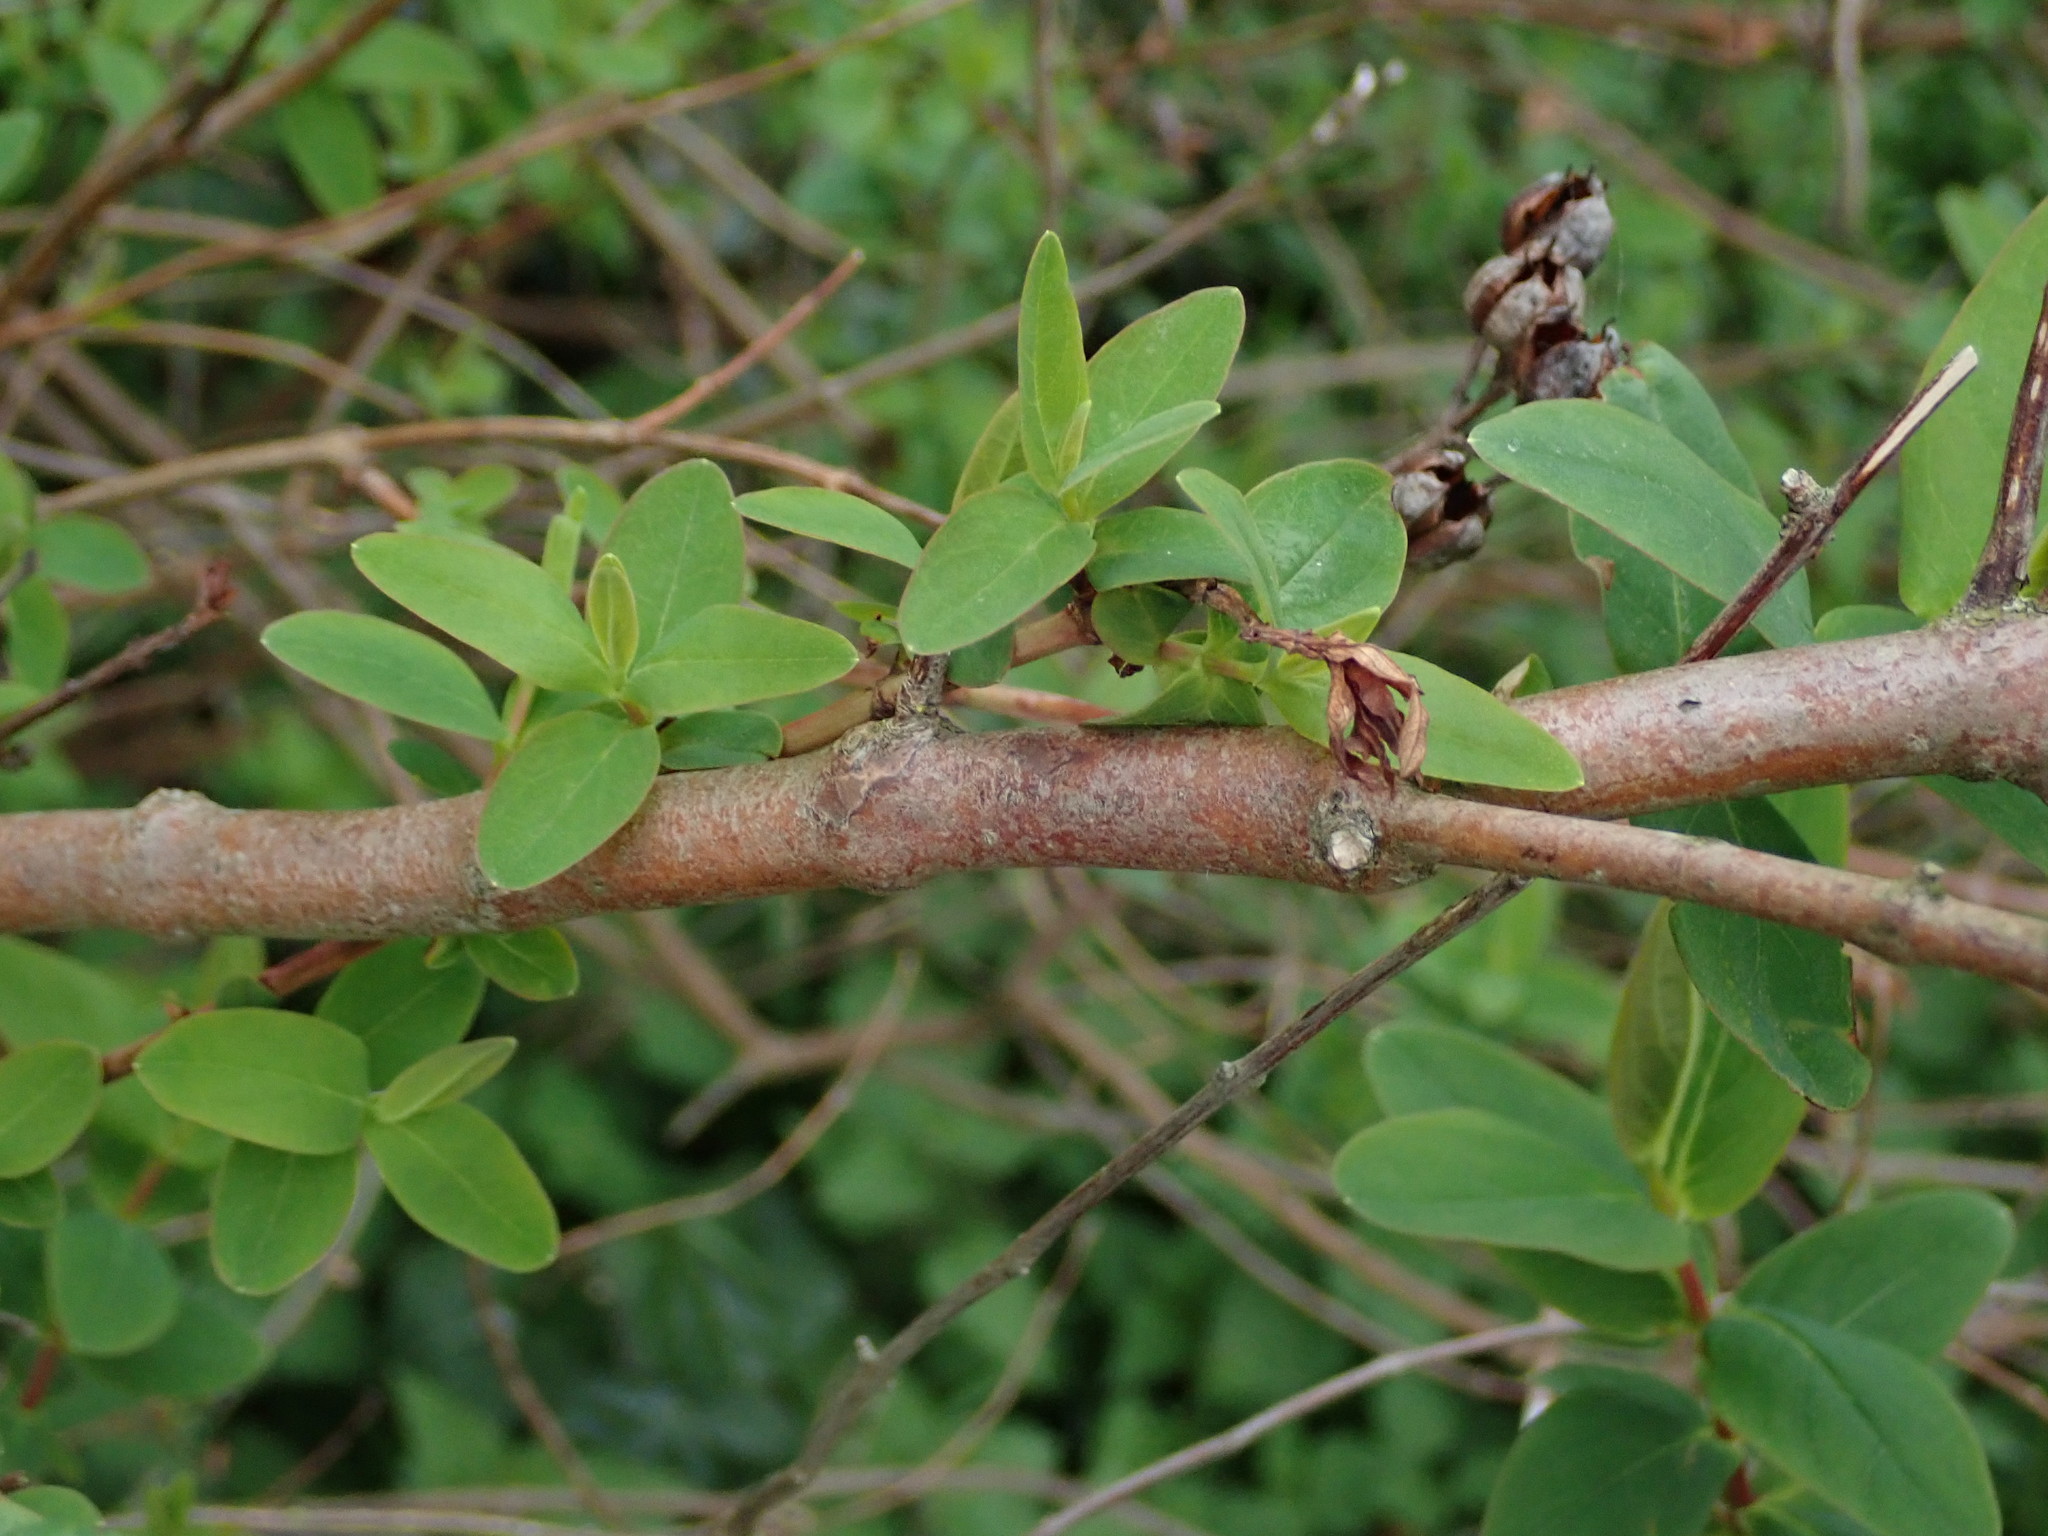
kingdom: Plantae
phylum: Tracheophyta
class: Magnoliopsida
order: Malpighiales
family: Hypericaceae
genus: Hypericum
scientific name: Hypericum hircinum
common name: Stinking tutsan
